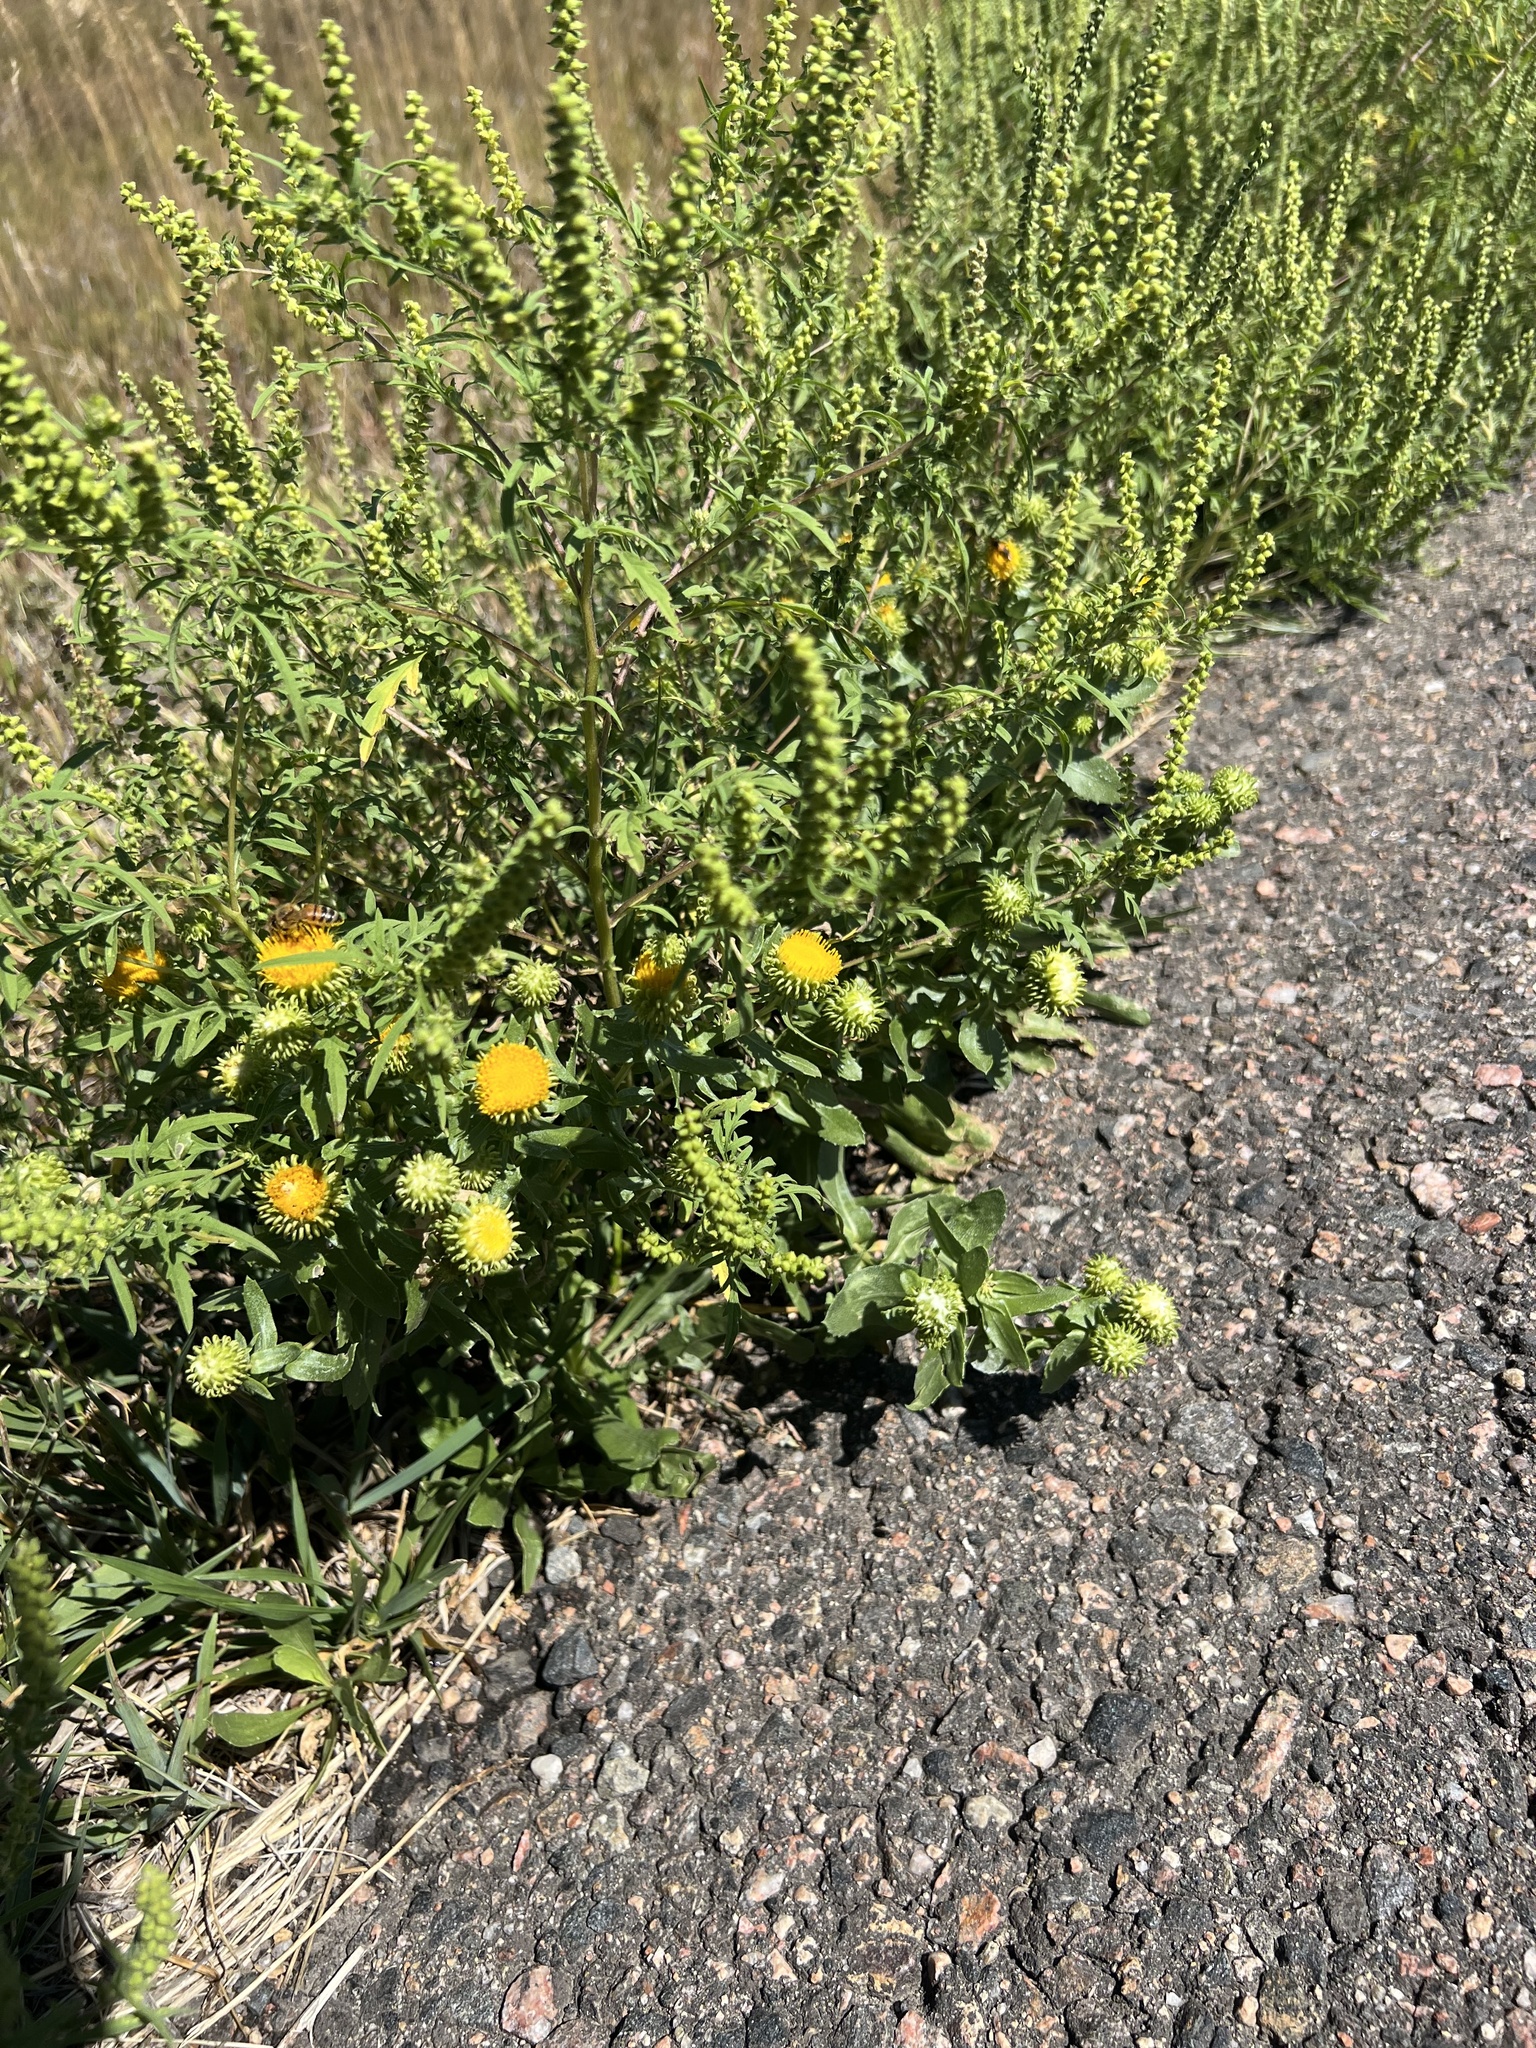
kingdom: Plantae
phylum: Tracheophyta
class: Magnoliopsida
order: Asterales
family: Asteraceae
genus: Grindelia
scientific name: Grindelia hirsutula
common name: Hairy gumweed
